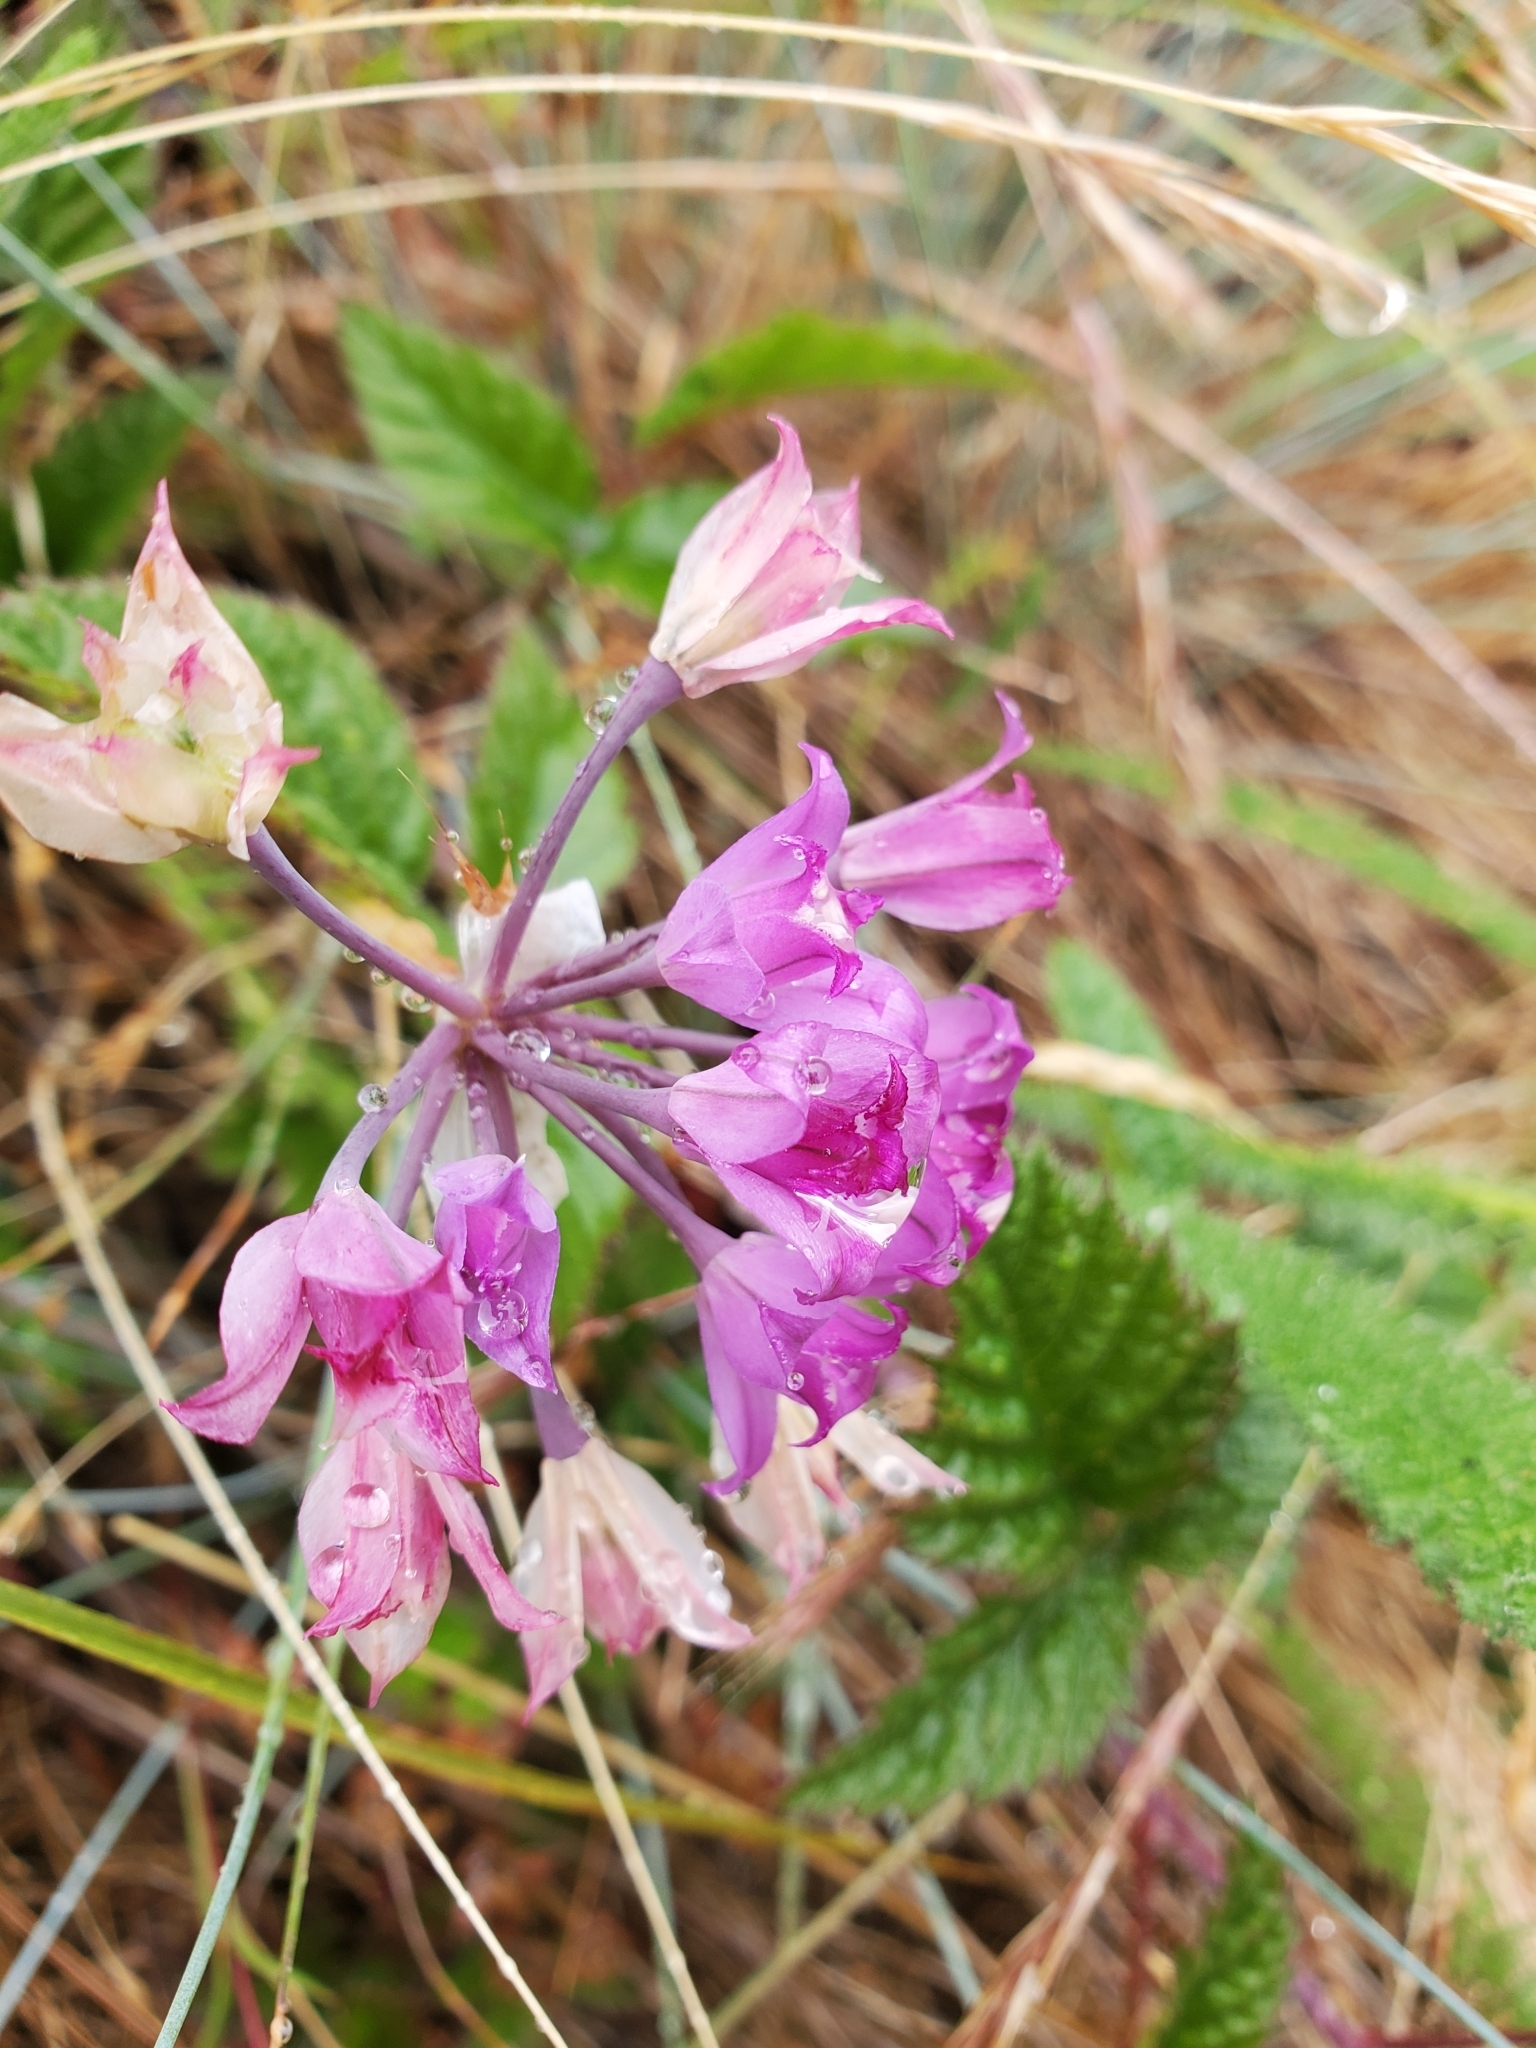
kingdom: Plantae
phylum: Tracheophyta
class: Liliopsida
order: Asparagales
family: Amaryllidaceae
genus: Allium
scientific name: Allium acuminatum
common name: Hooker's onion
